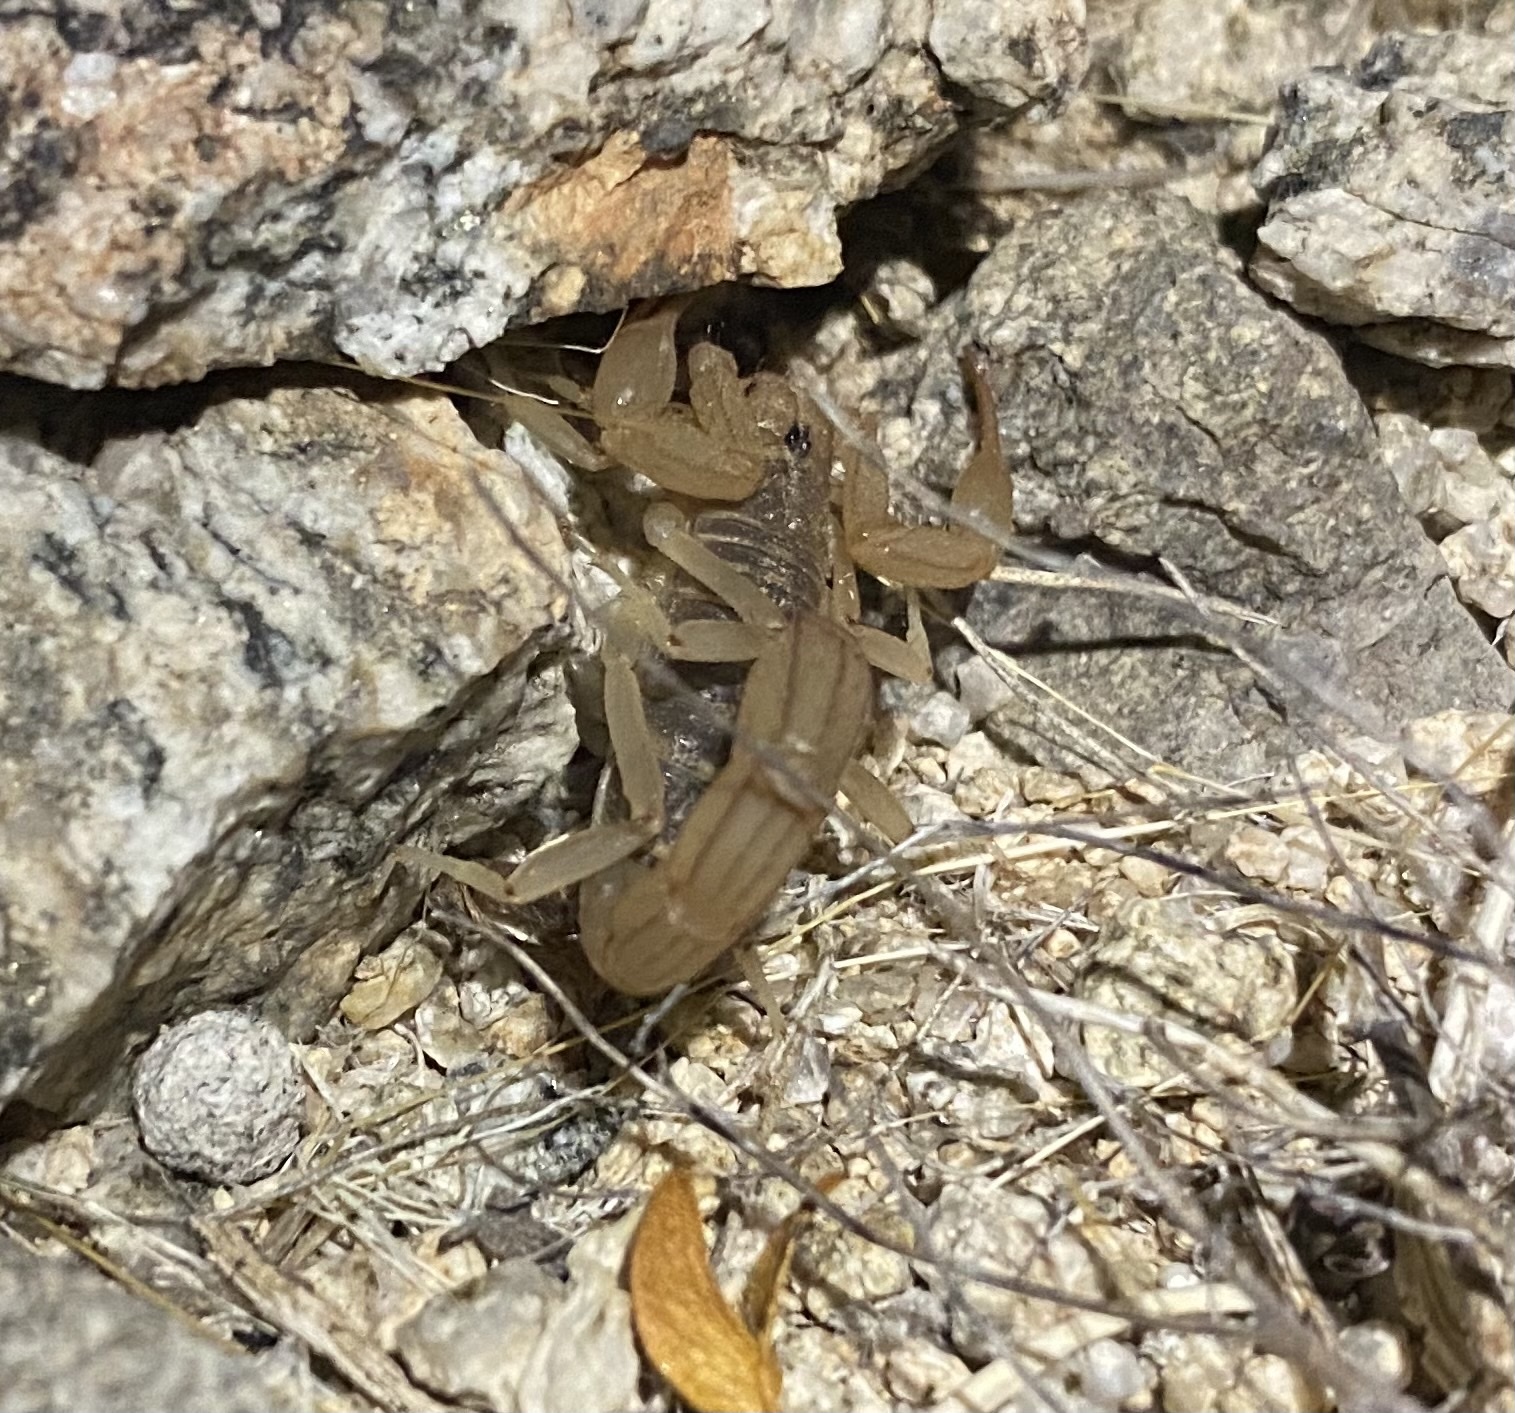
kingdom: Animalia
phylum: Arthropoda
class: Arachnida
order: Scorpiones
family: Vaejovidae
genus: Paravaejovis
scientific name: Paravaejovis spinigerus
